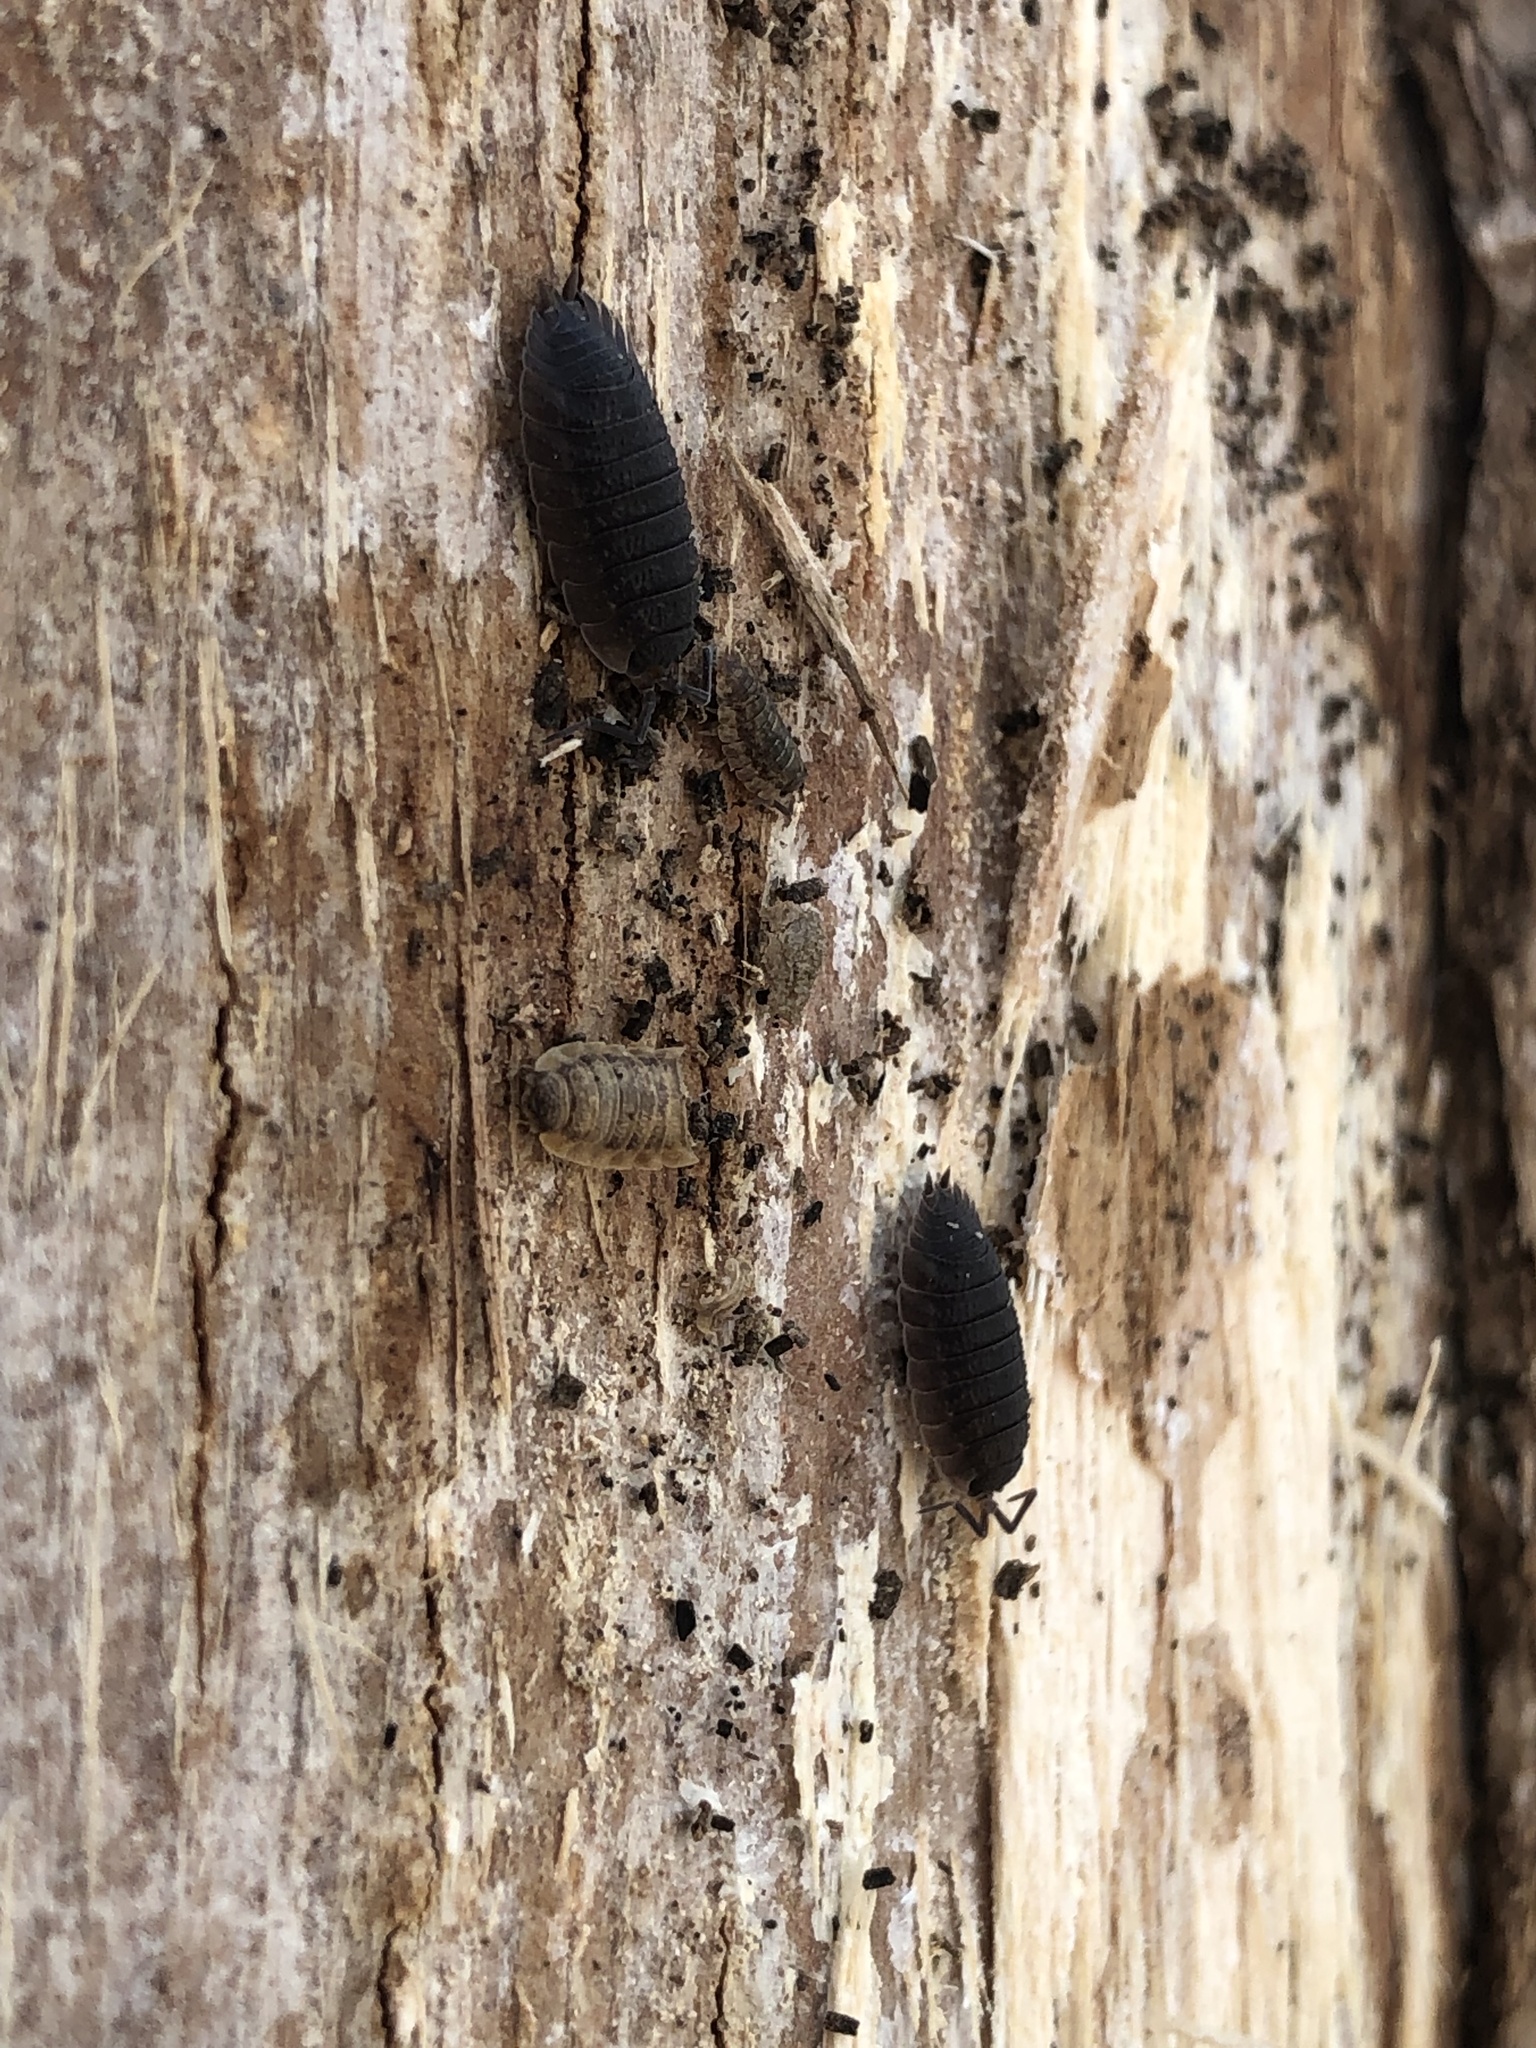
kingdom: Animalia
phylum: Arthropoda
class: Malacostraca
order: Isopoda
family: Porcellionidae
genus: Porcellio
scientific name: Porcellio scaber
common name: Common rough woodlouse
